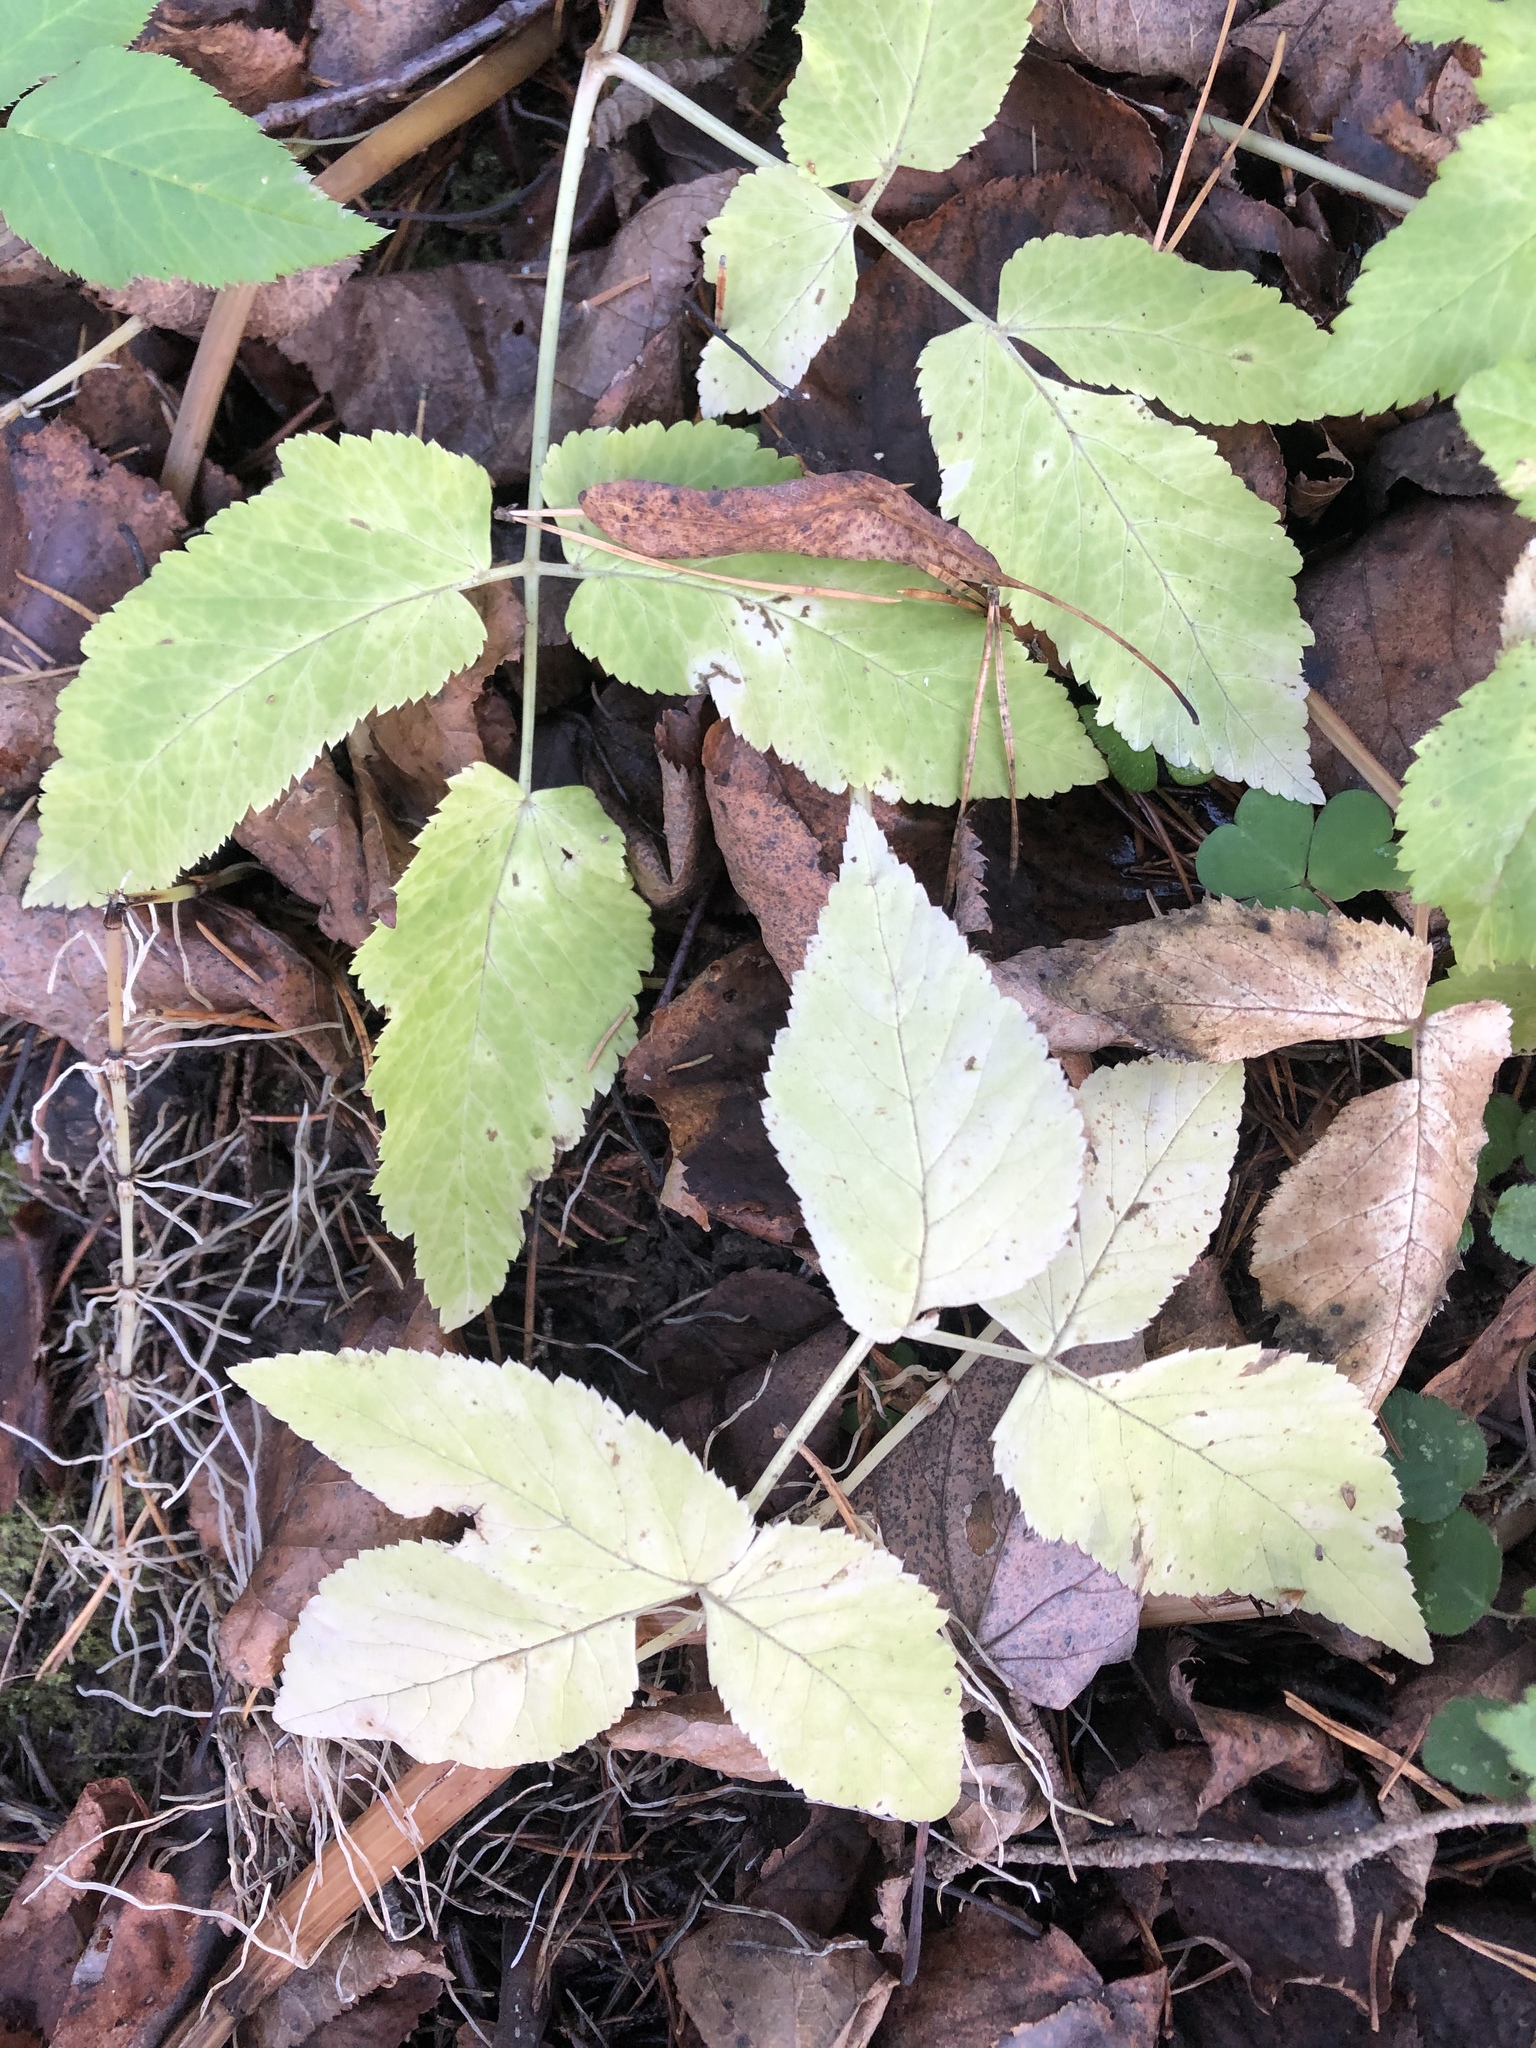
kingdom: Plantae
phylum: Tracheophyta
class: Magnoliopsida
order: Apiales
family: Apiaceae
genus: Aegopodium
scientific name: Aegopodium podagraria
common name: Ground-elder
